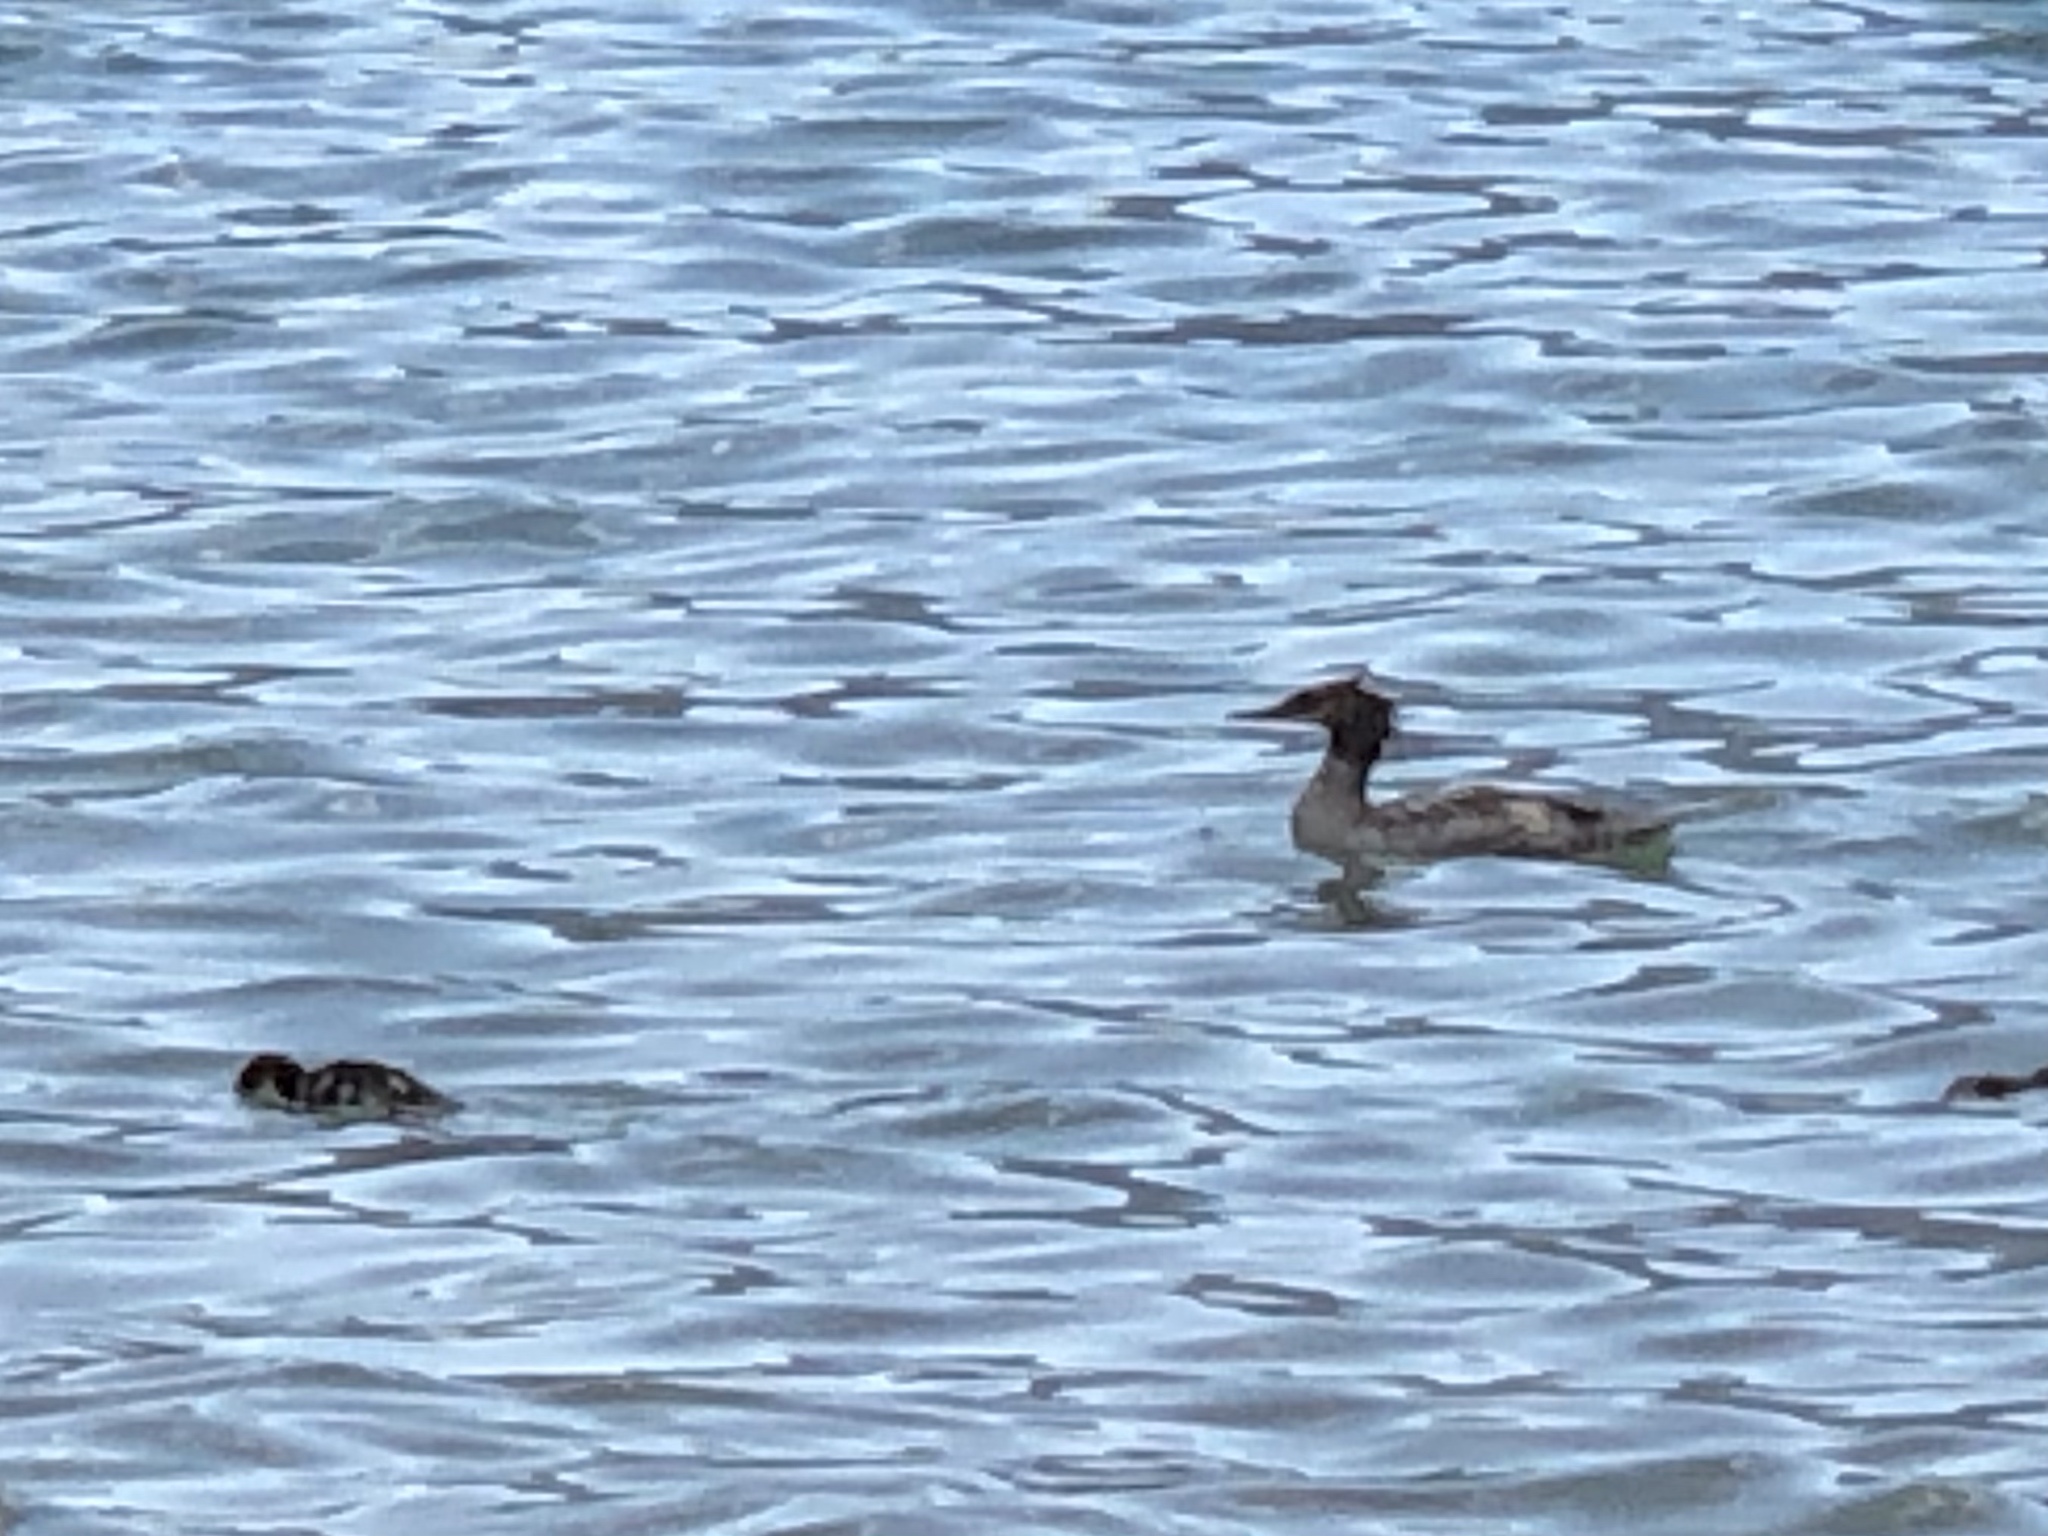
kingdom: Animalia
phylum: Chordata
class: Aves
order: Anseriformes
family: Anatidae
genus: Mergus
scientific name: Mergus merganser
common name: Common merganser
